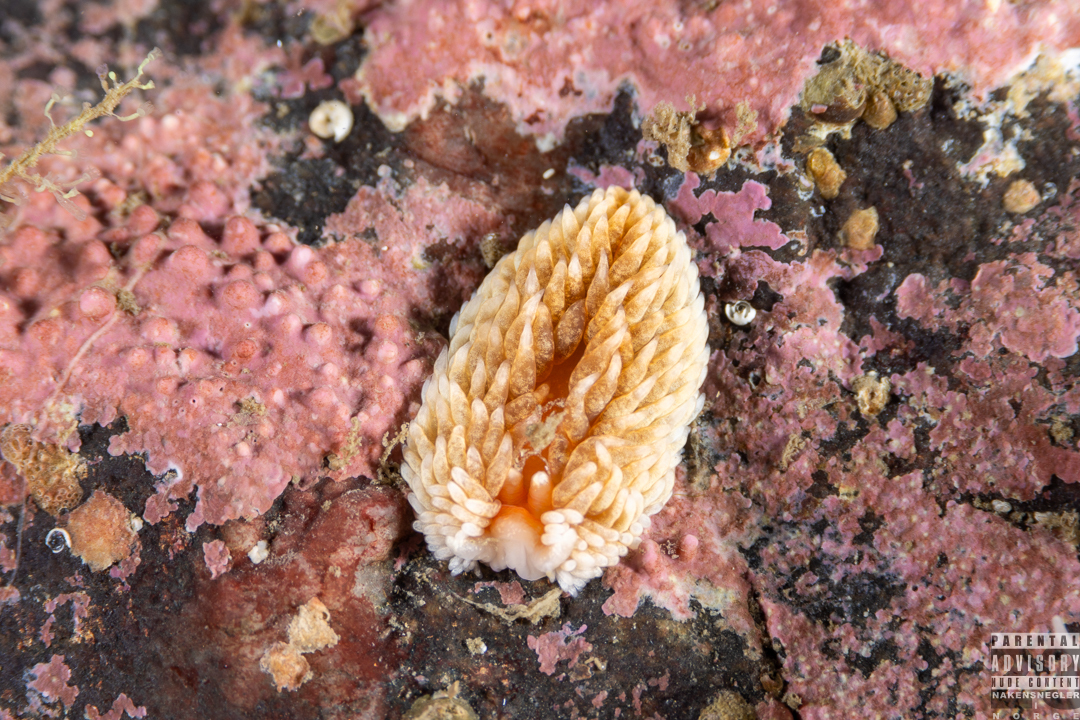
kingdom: Animalia
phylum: Mollusca
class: Gastropoda
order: Nudibranchia
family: Aeolidiidae
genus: Aeolidiella
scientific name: Aeolidiella glauca
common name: Orange-brown aeolid
